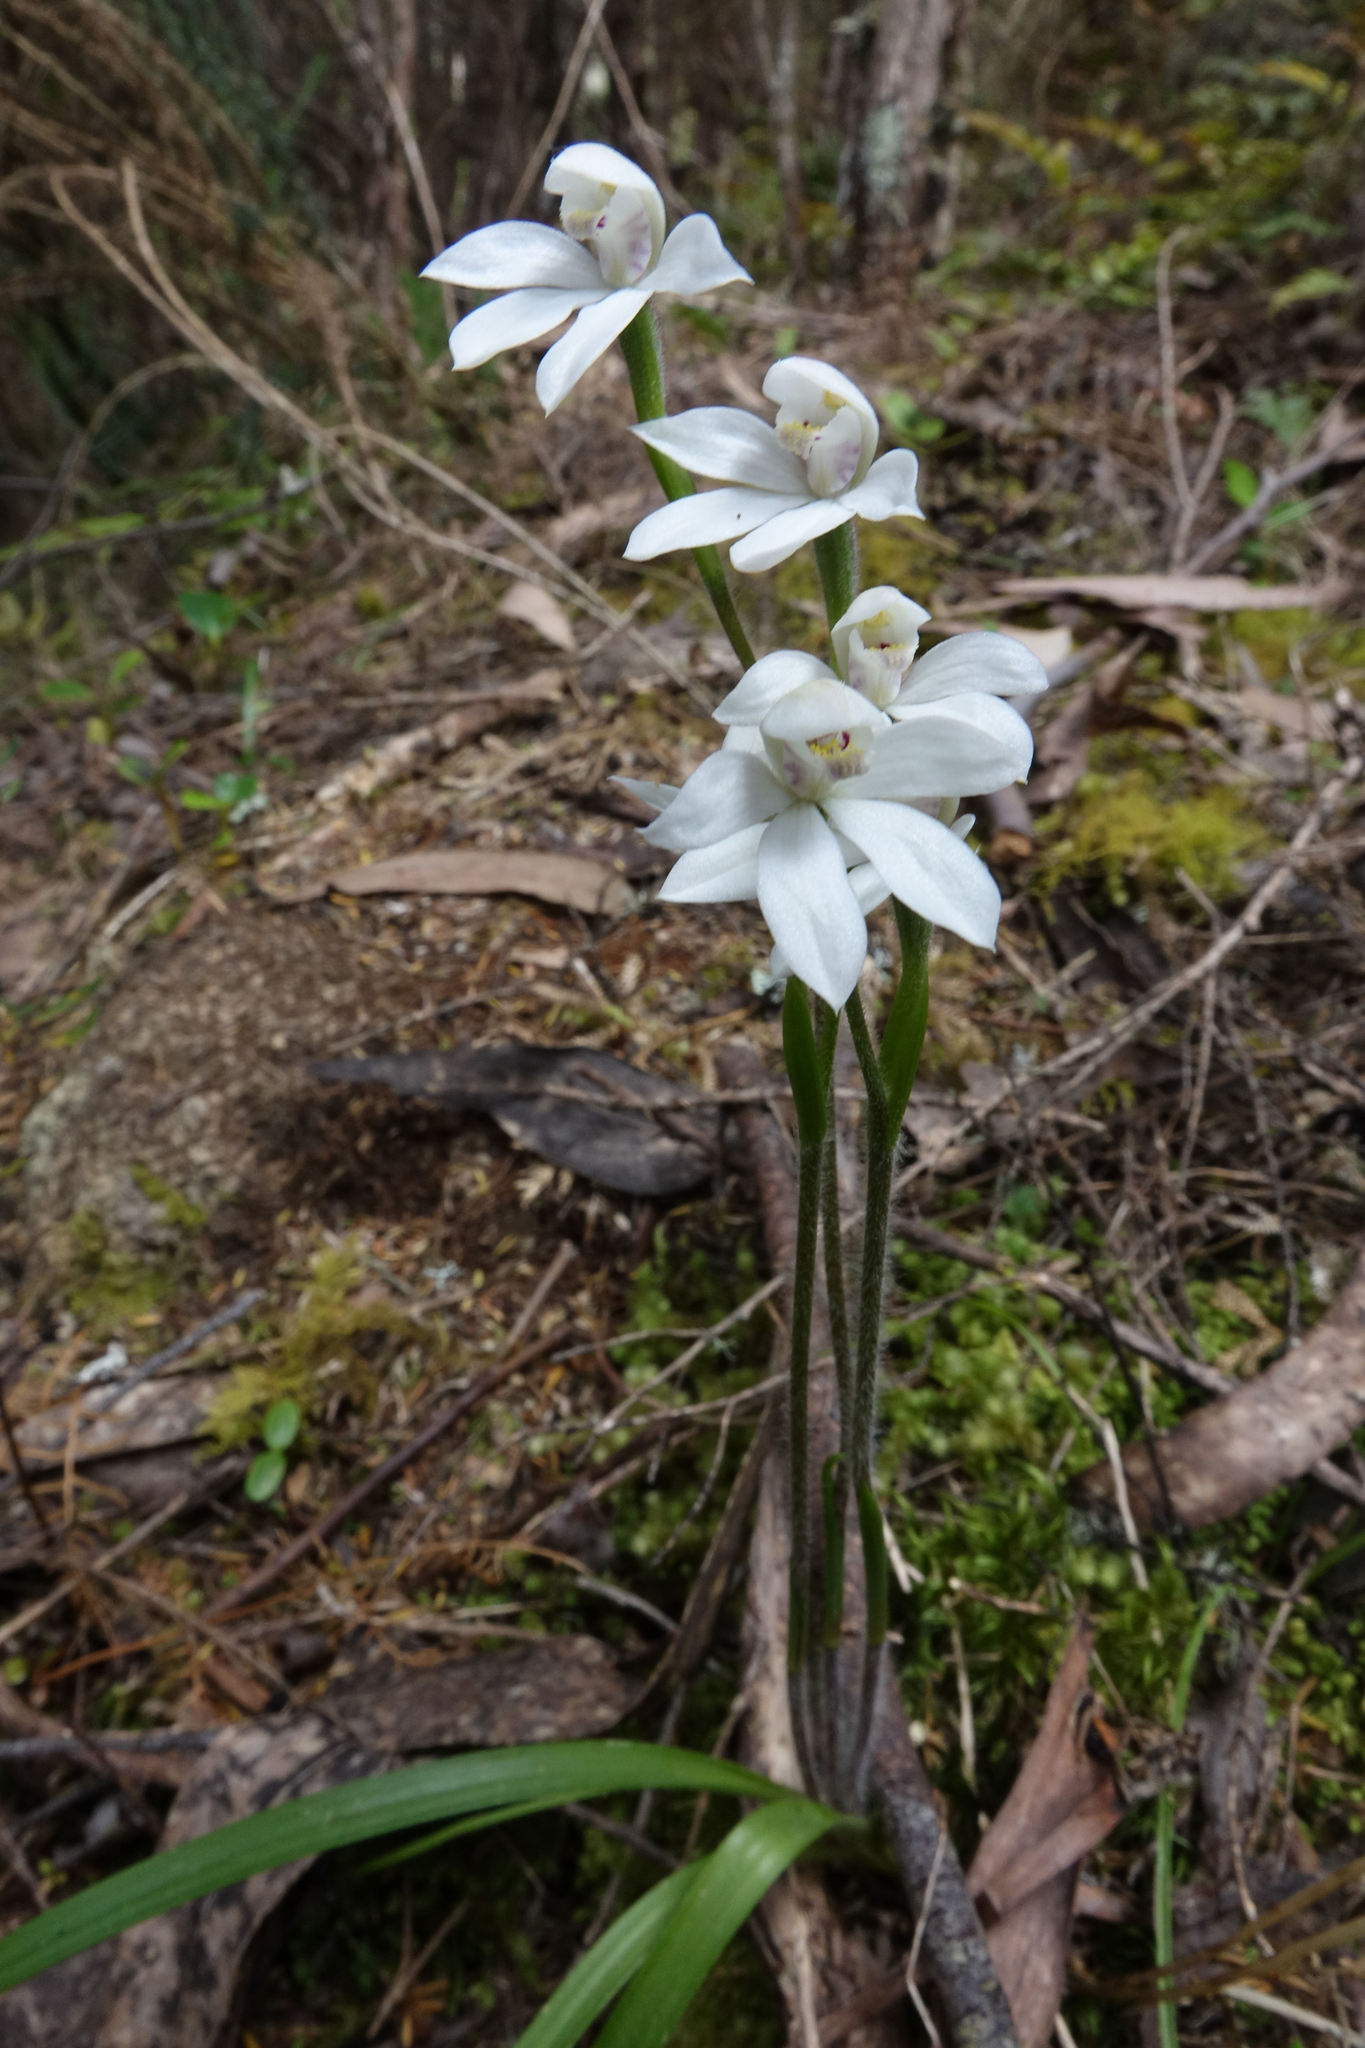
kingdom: Plantae
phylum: Tracheophyta
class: Liliopsida
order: Asparagales
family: Orchidaceae
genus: Caladenia
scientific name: Caladenia lyallii
